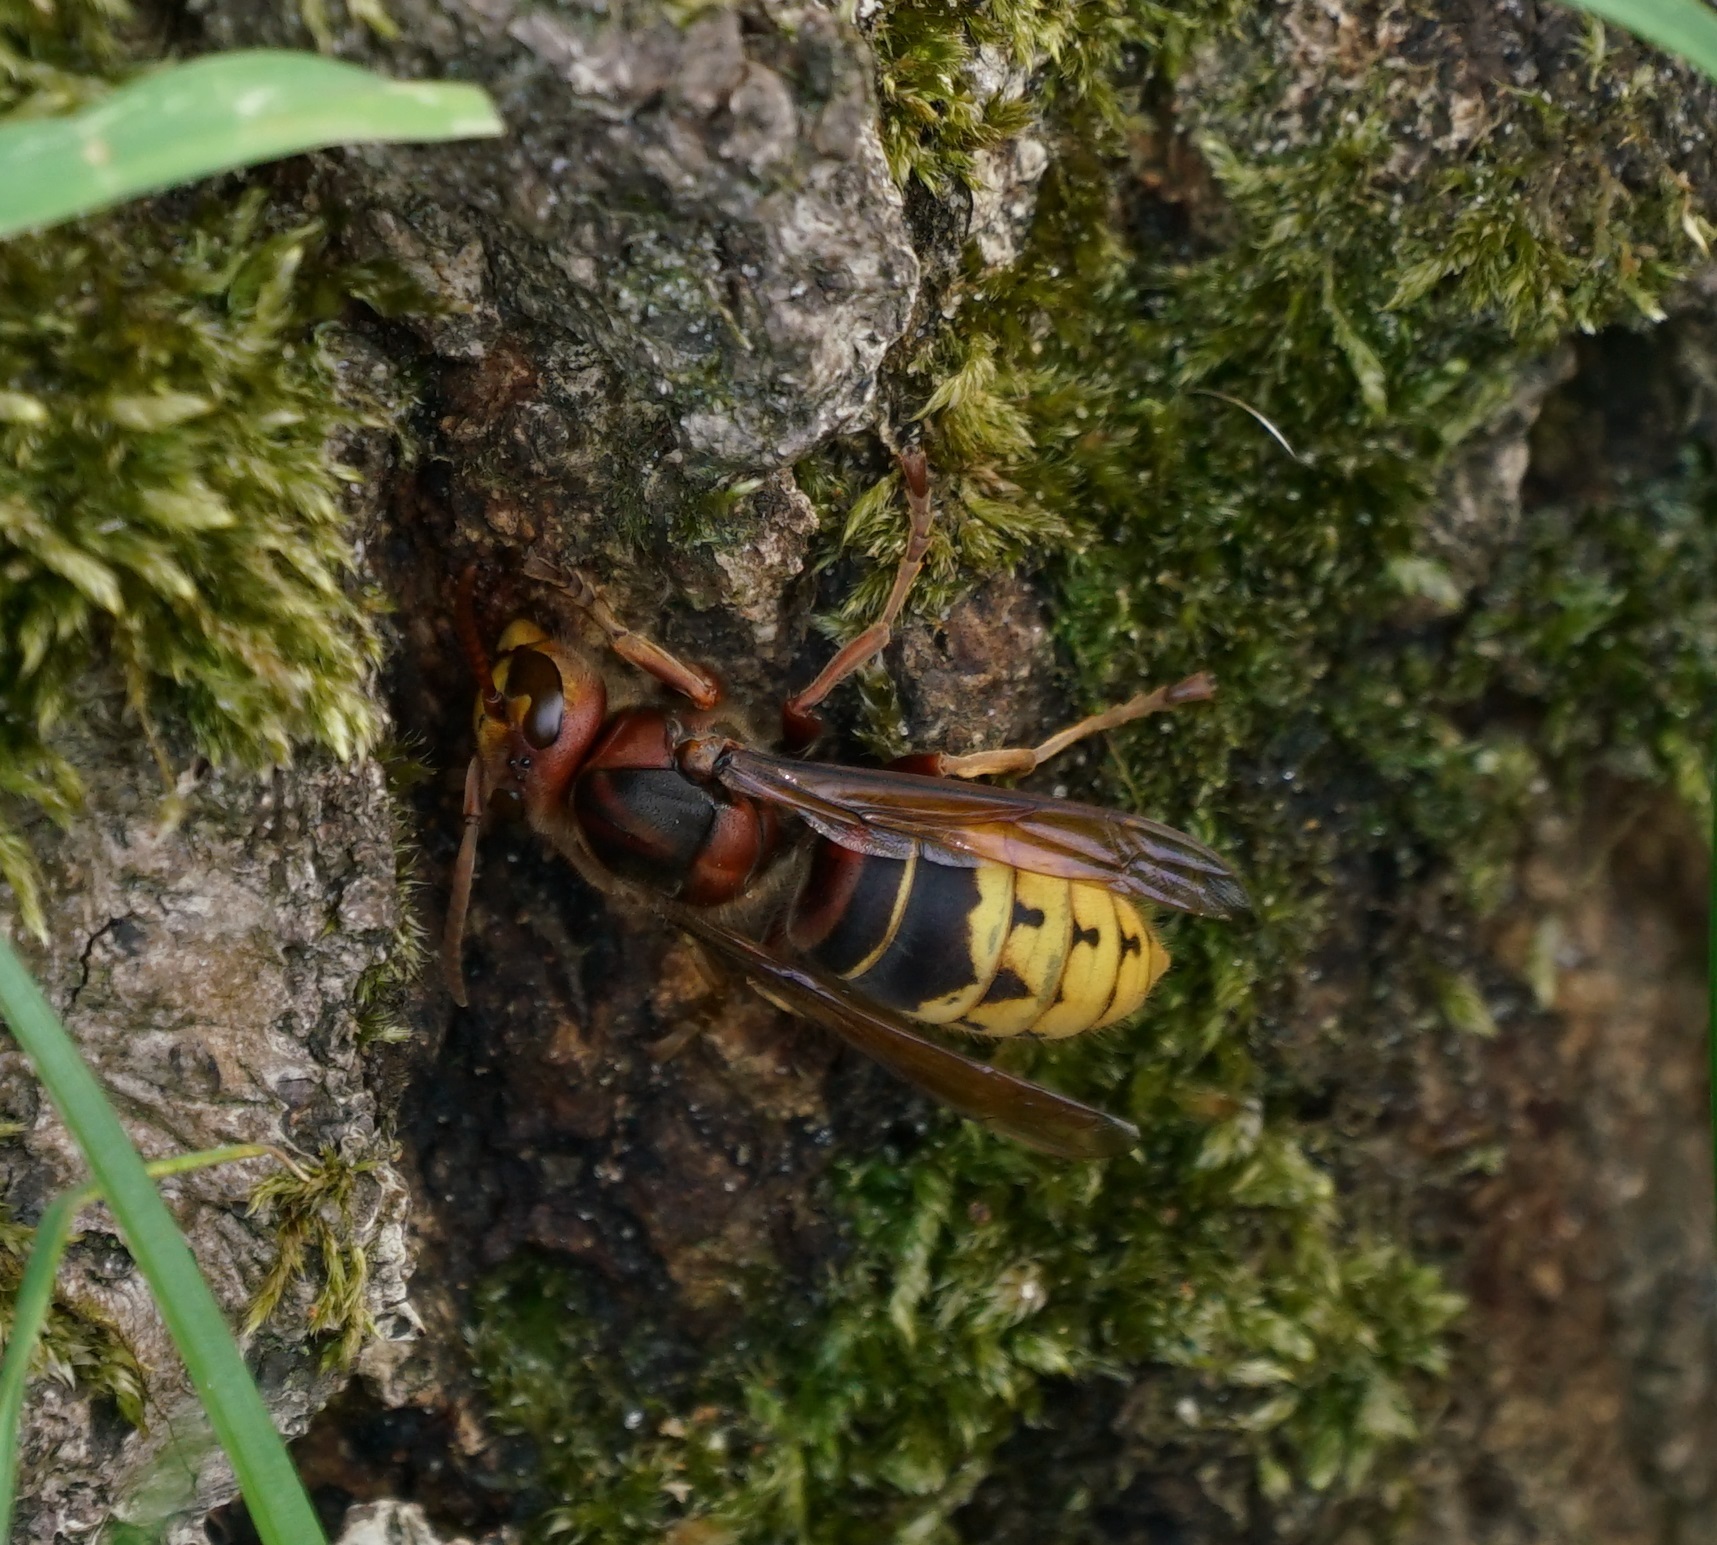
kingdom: Animalia
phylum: Arthropoda
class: Insecta
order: Hymenoptera
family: Vespidae
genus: Vespa
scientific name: Vespa crabro
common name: Hornet
